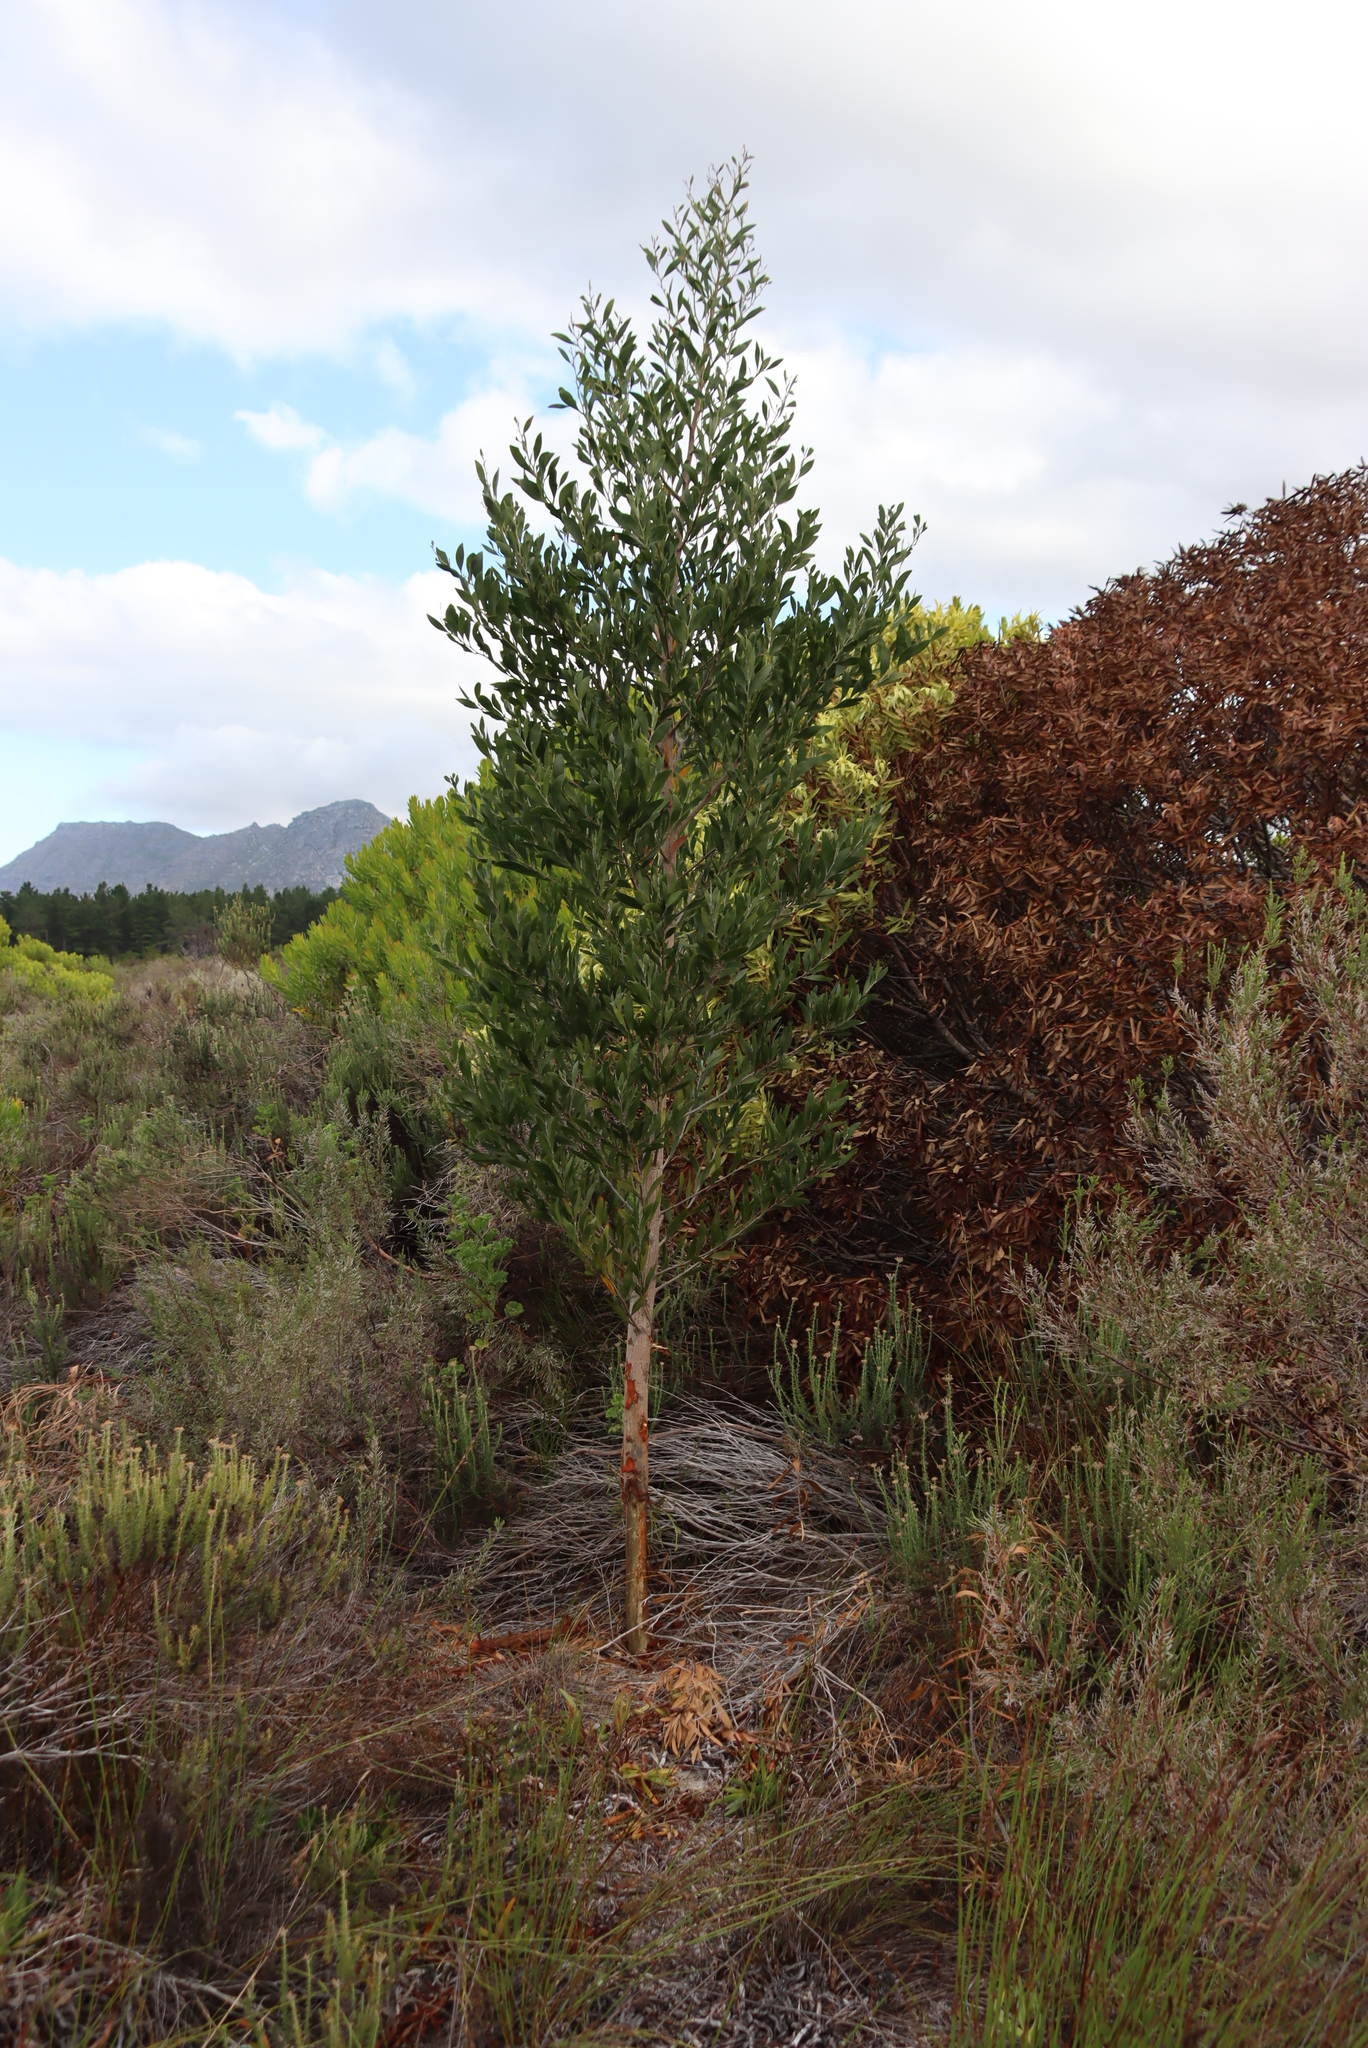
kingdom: Plantae
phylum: Tracheophyta
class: Magnoliopsida
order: Fabales
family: Fabaceae
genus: Acacia
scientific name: Acacia melanoxylon
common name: Blackwood
